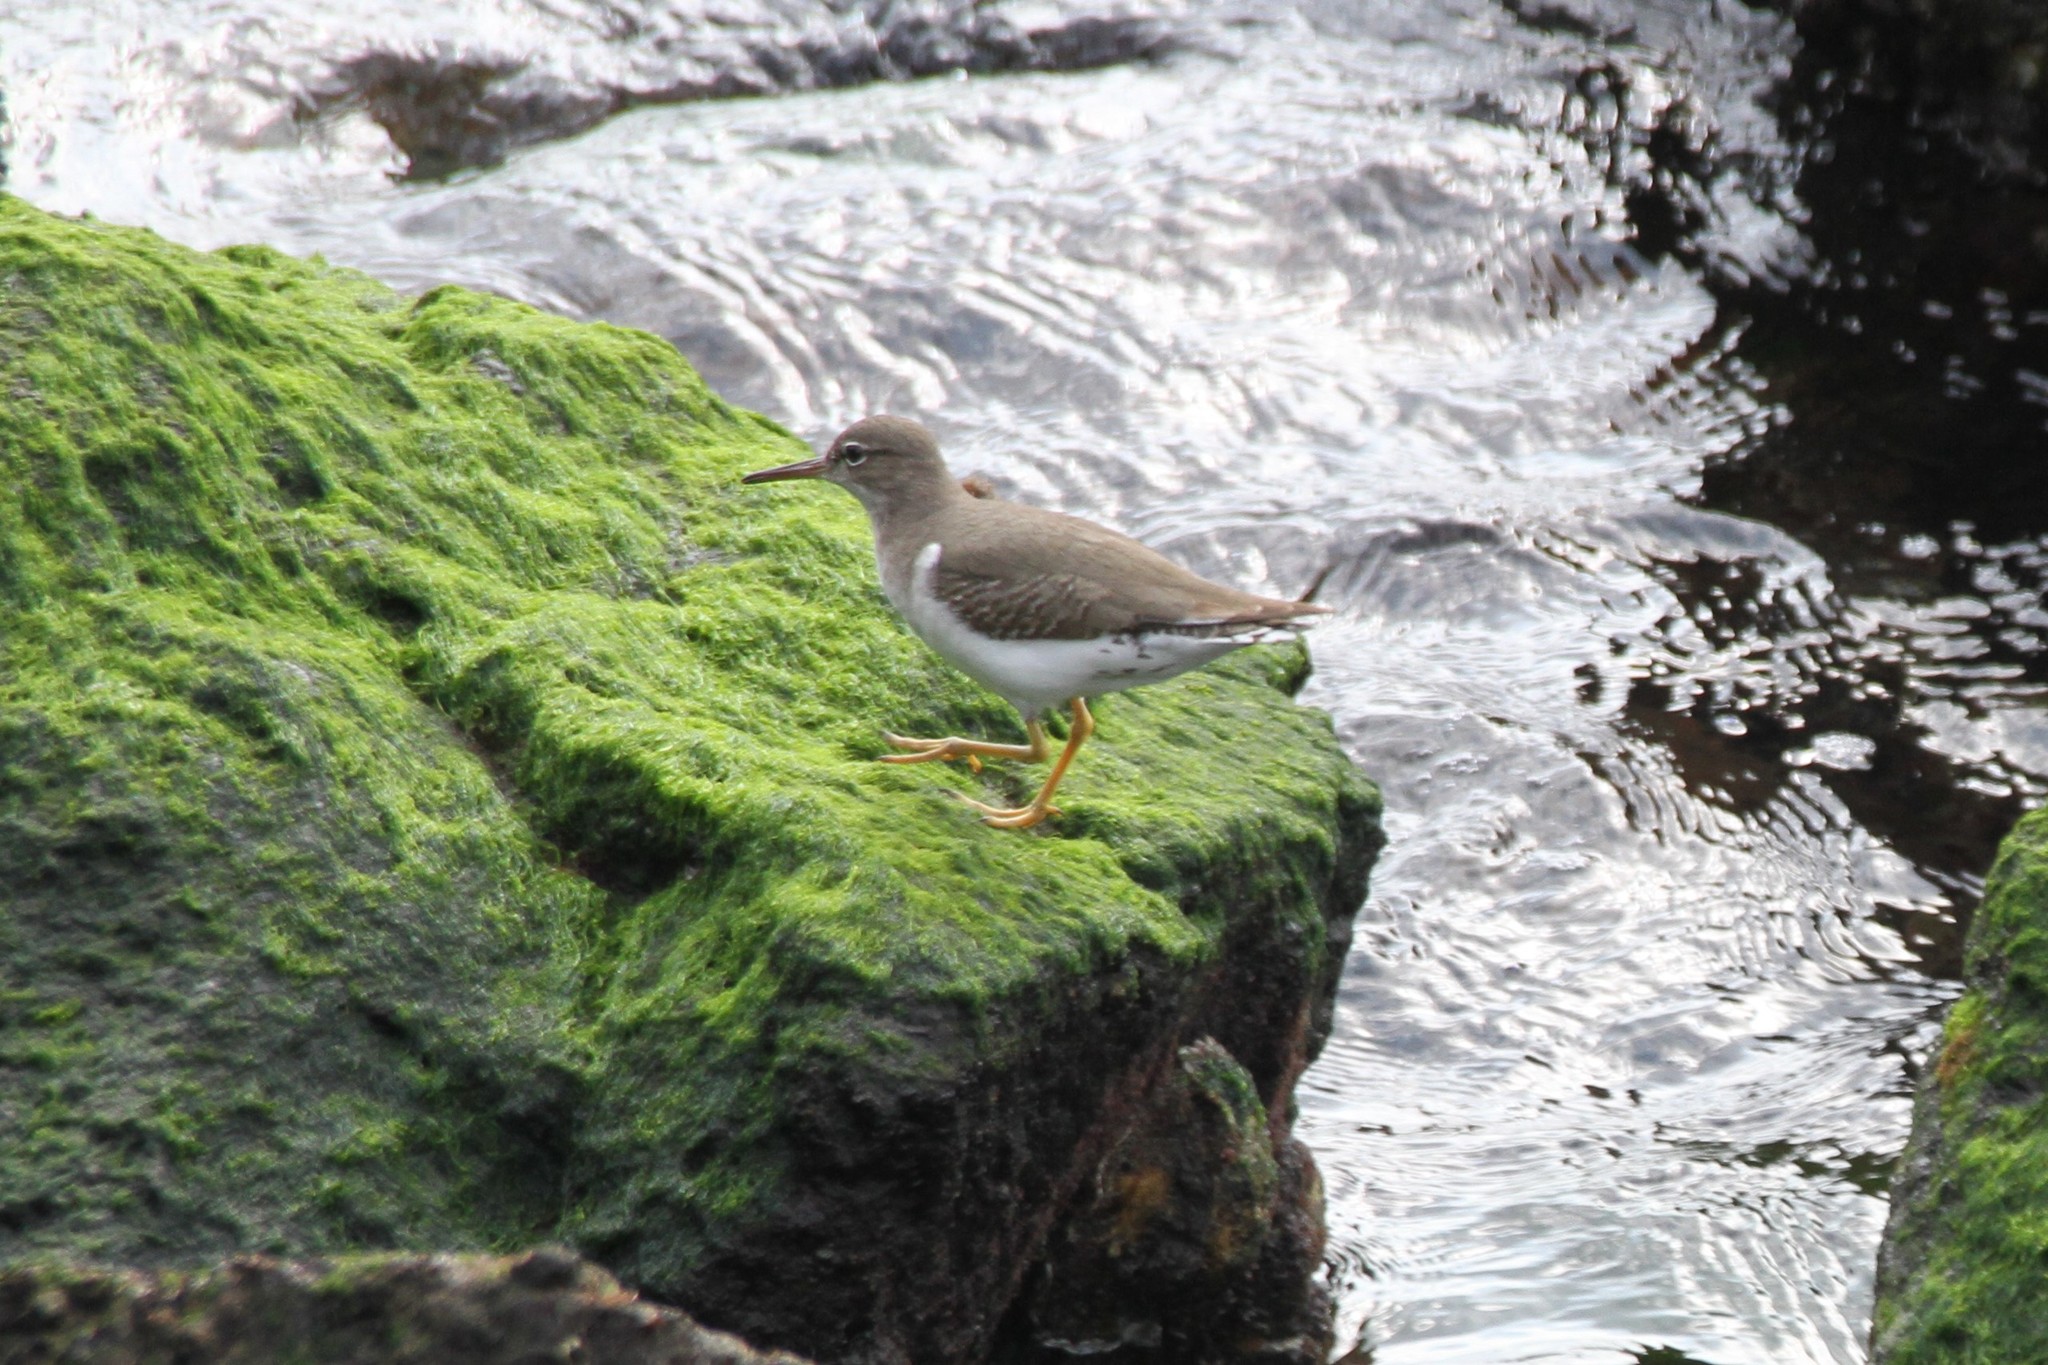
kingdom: Animalia
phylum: Chordata
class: Aves
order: Charadriiformes
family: Scolopacidae
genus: Actitis
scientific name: Actitis macularius
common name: Spotted sandpiper
